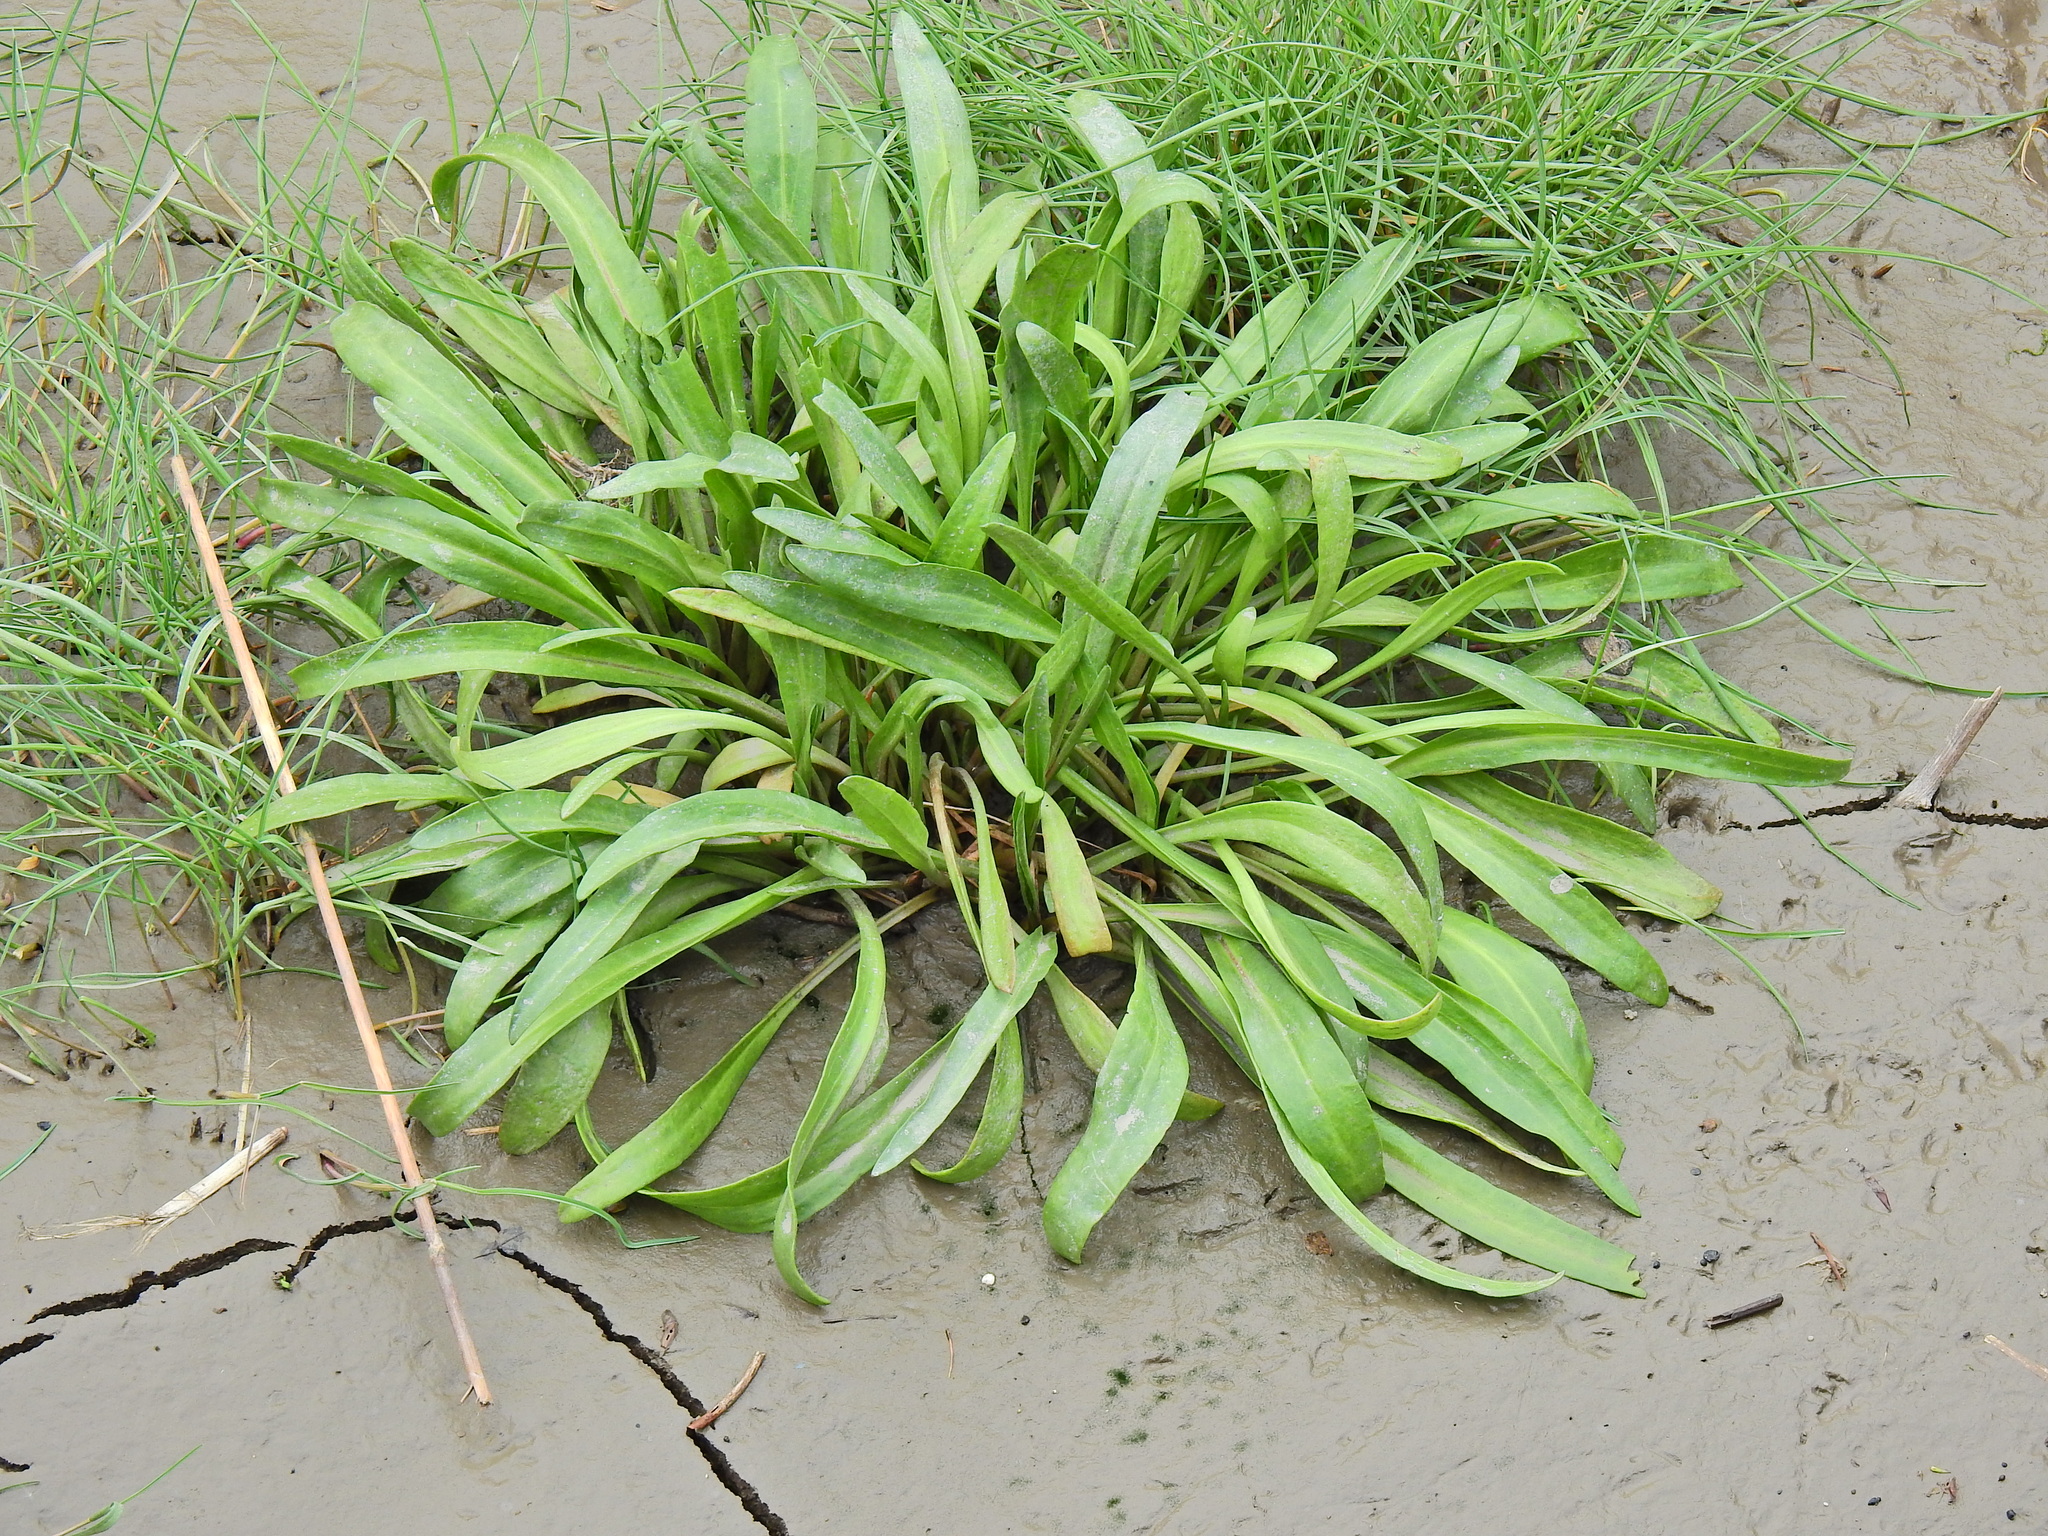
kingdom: Plantae
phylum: Tracheophyta
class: Magnoliopsida
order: Asterales
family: Asteraceae
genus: Tripolium
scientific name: Tripolium pannonicum
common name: Sea aster
